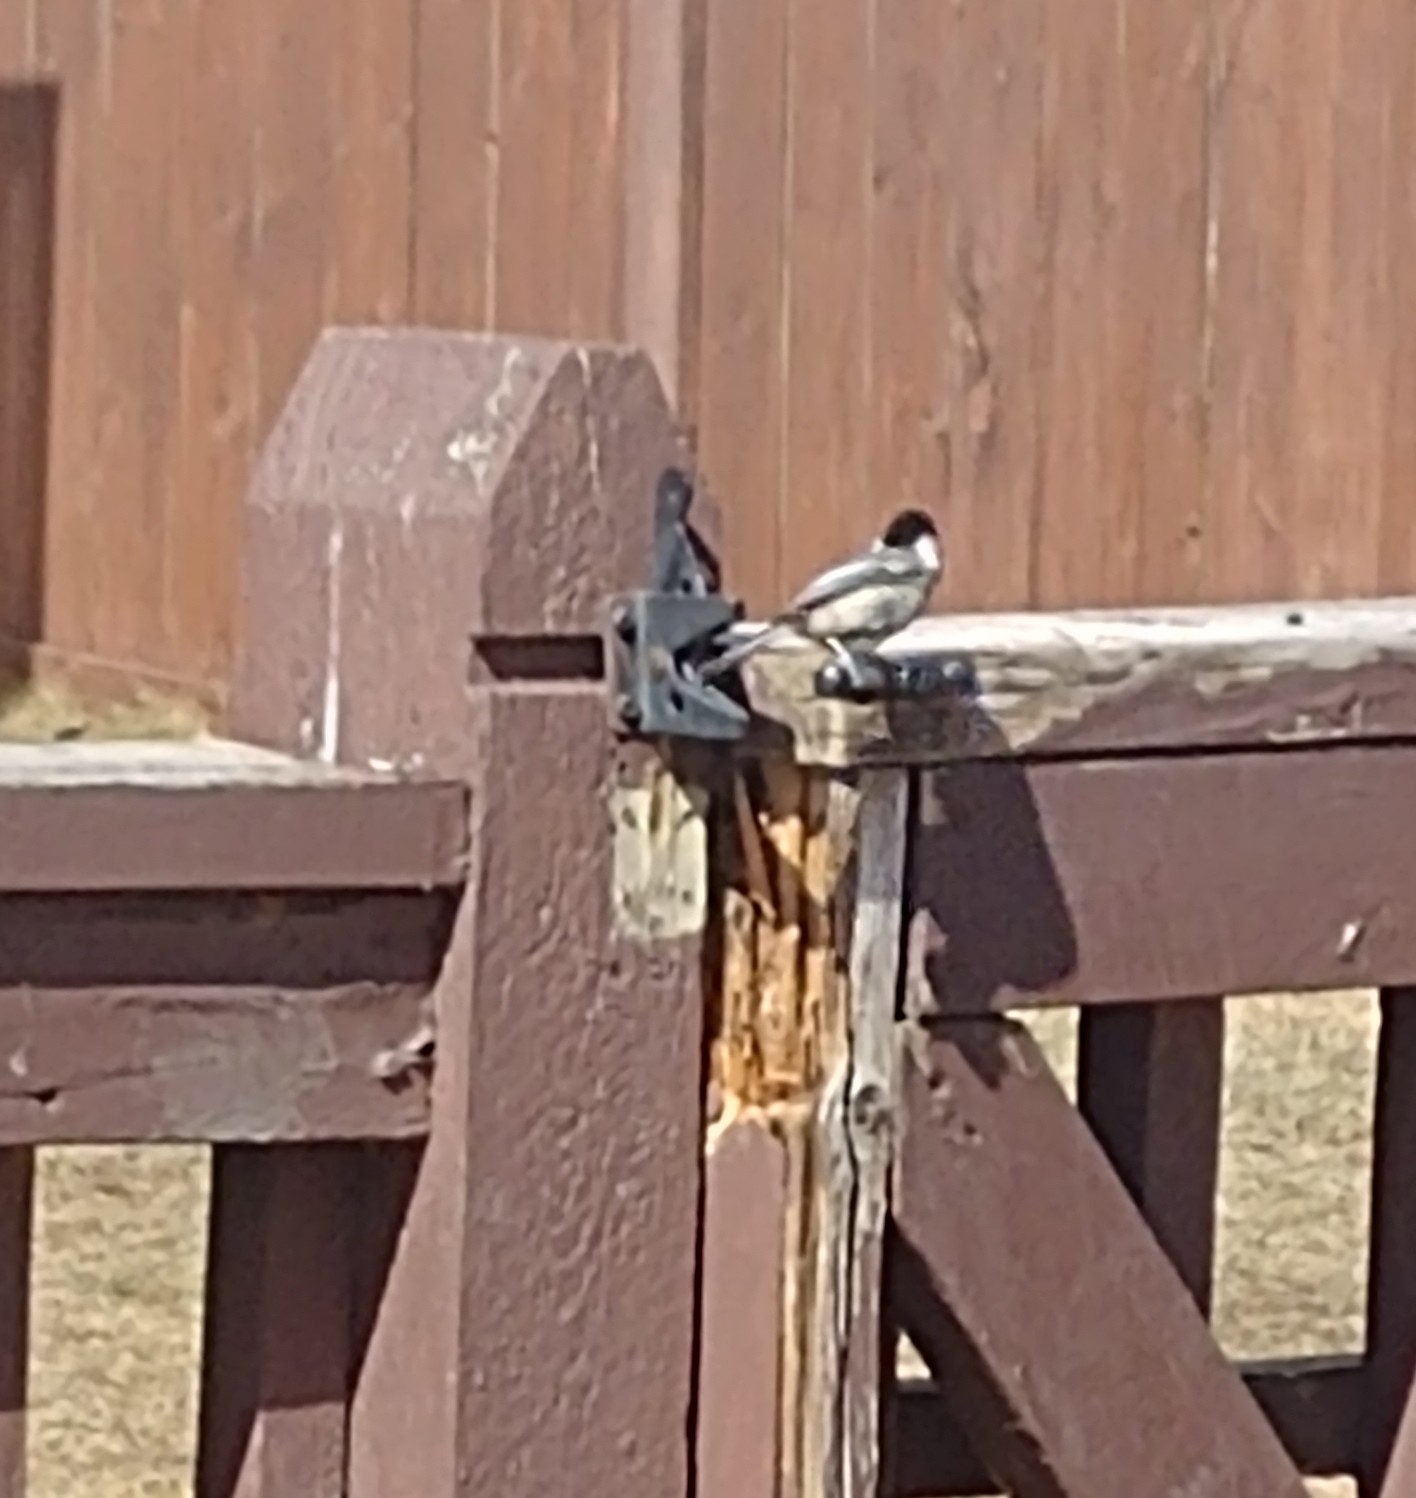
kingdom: Animalia
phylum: Chordata
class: Aves
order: Passeriformes
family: Paridae
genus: Poecile
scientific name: Poecile atricapillus
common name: Black-capped chickadee
